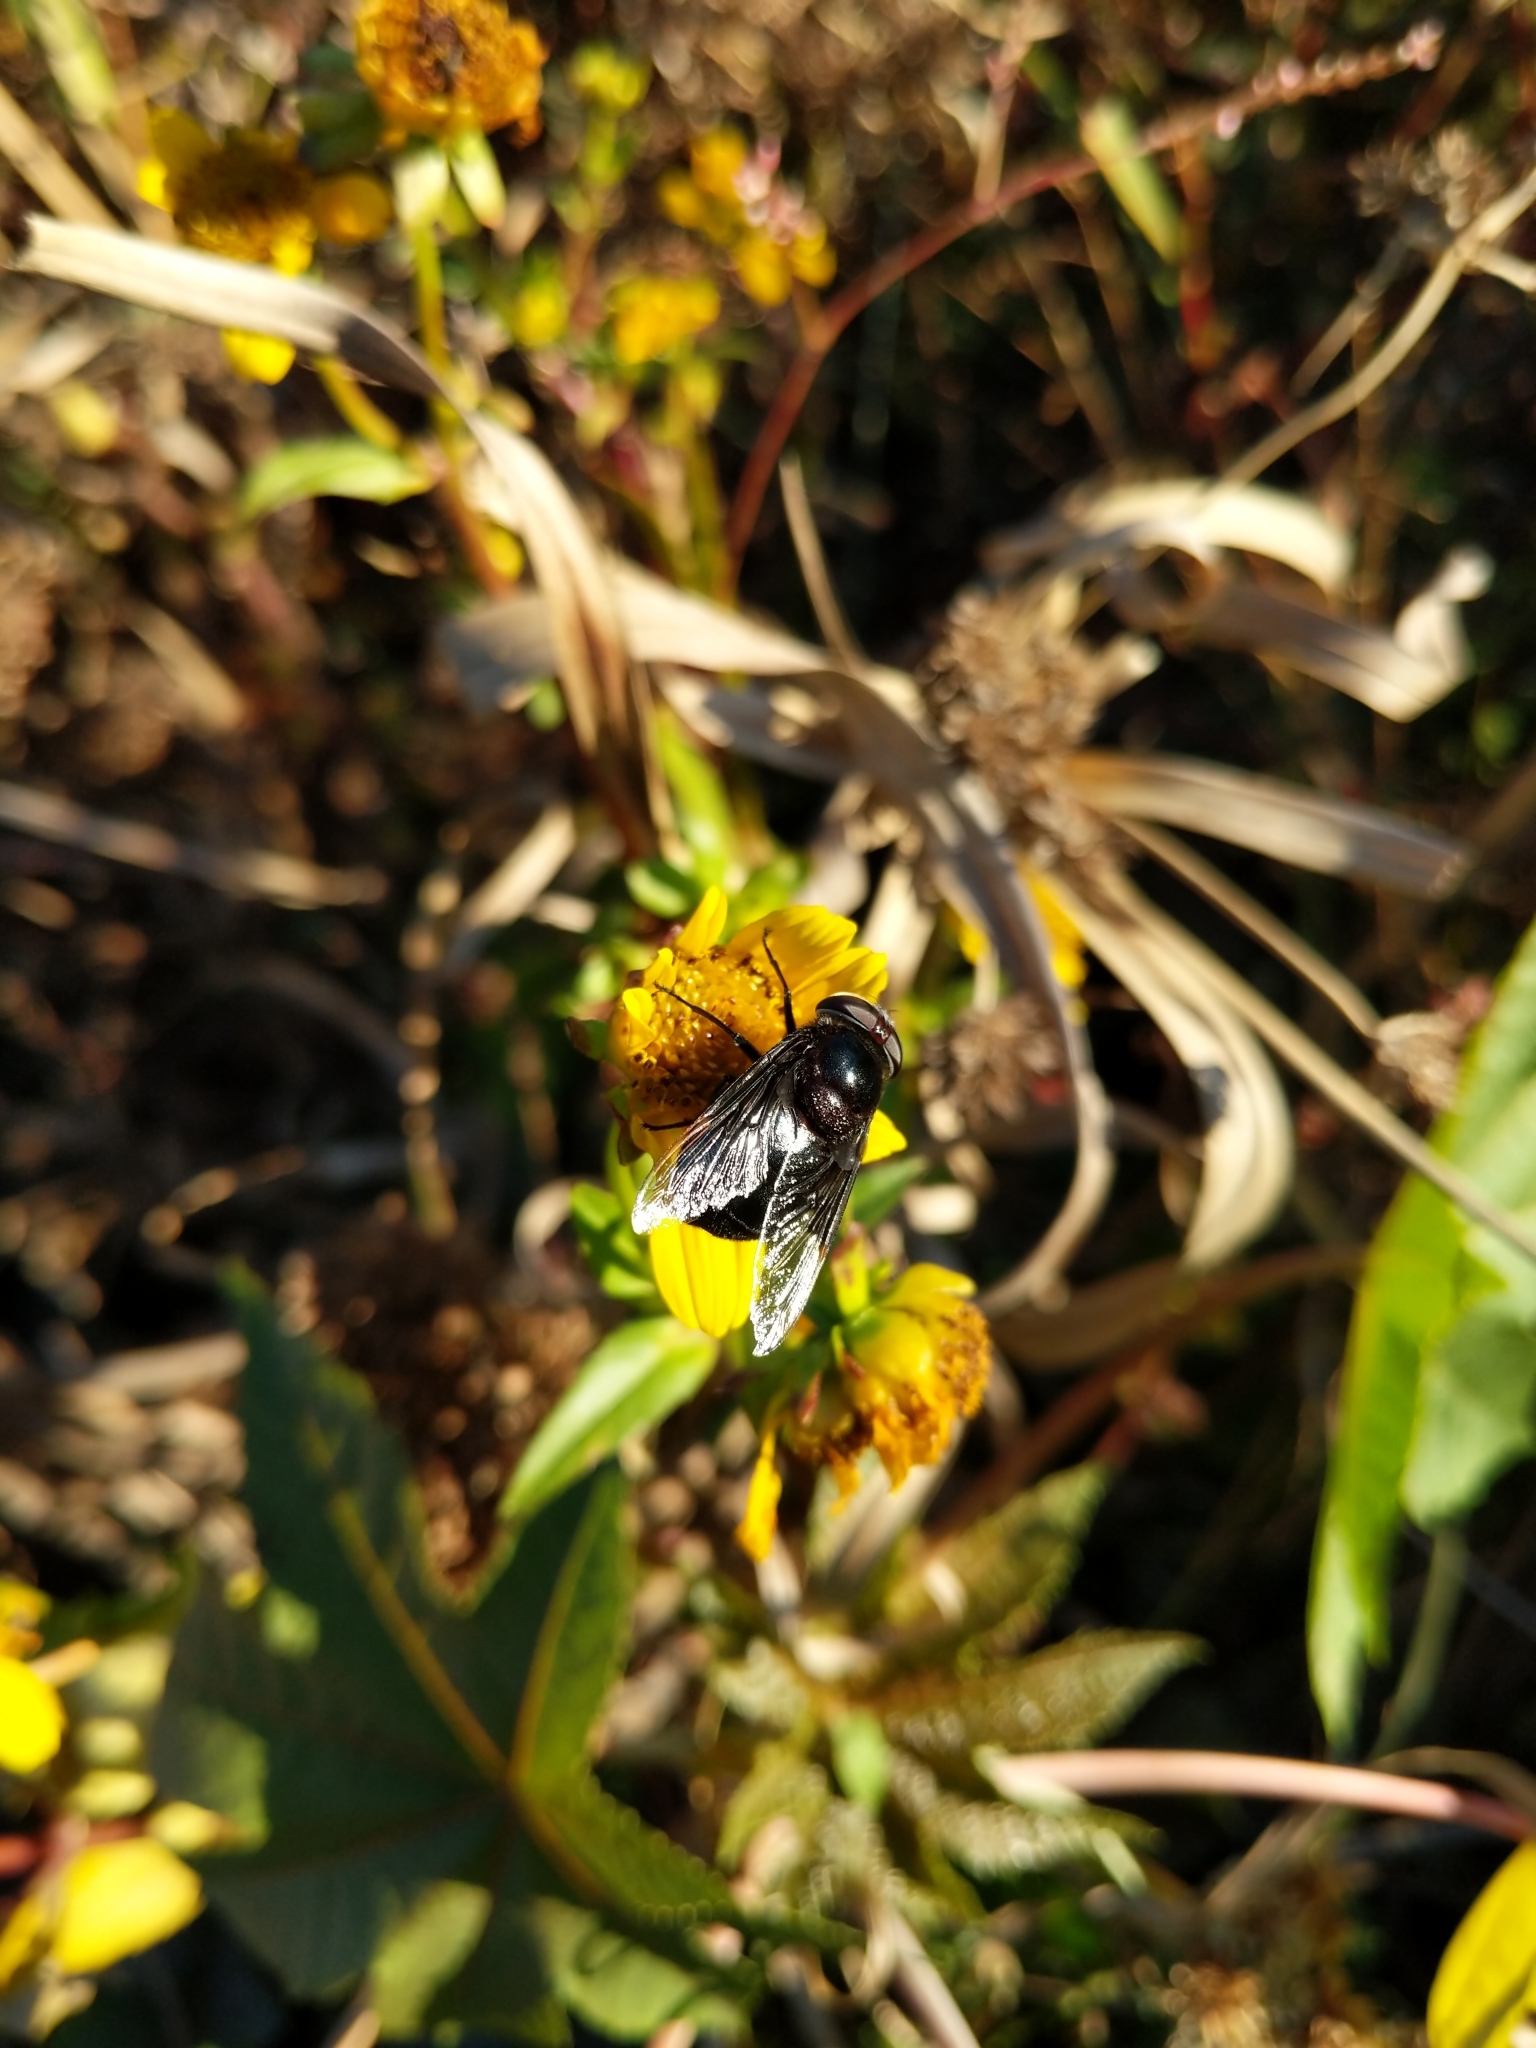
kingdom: Animalia
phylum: Arthropoda
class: Insecta
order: Diptera
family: Syrphidae
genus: Copestylum
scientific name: Copestylum mexicanum
